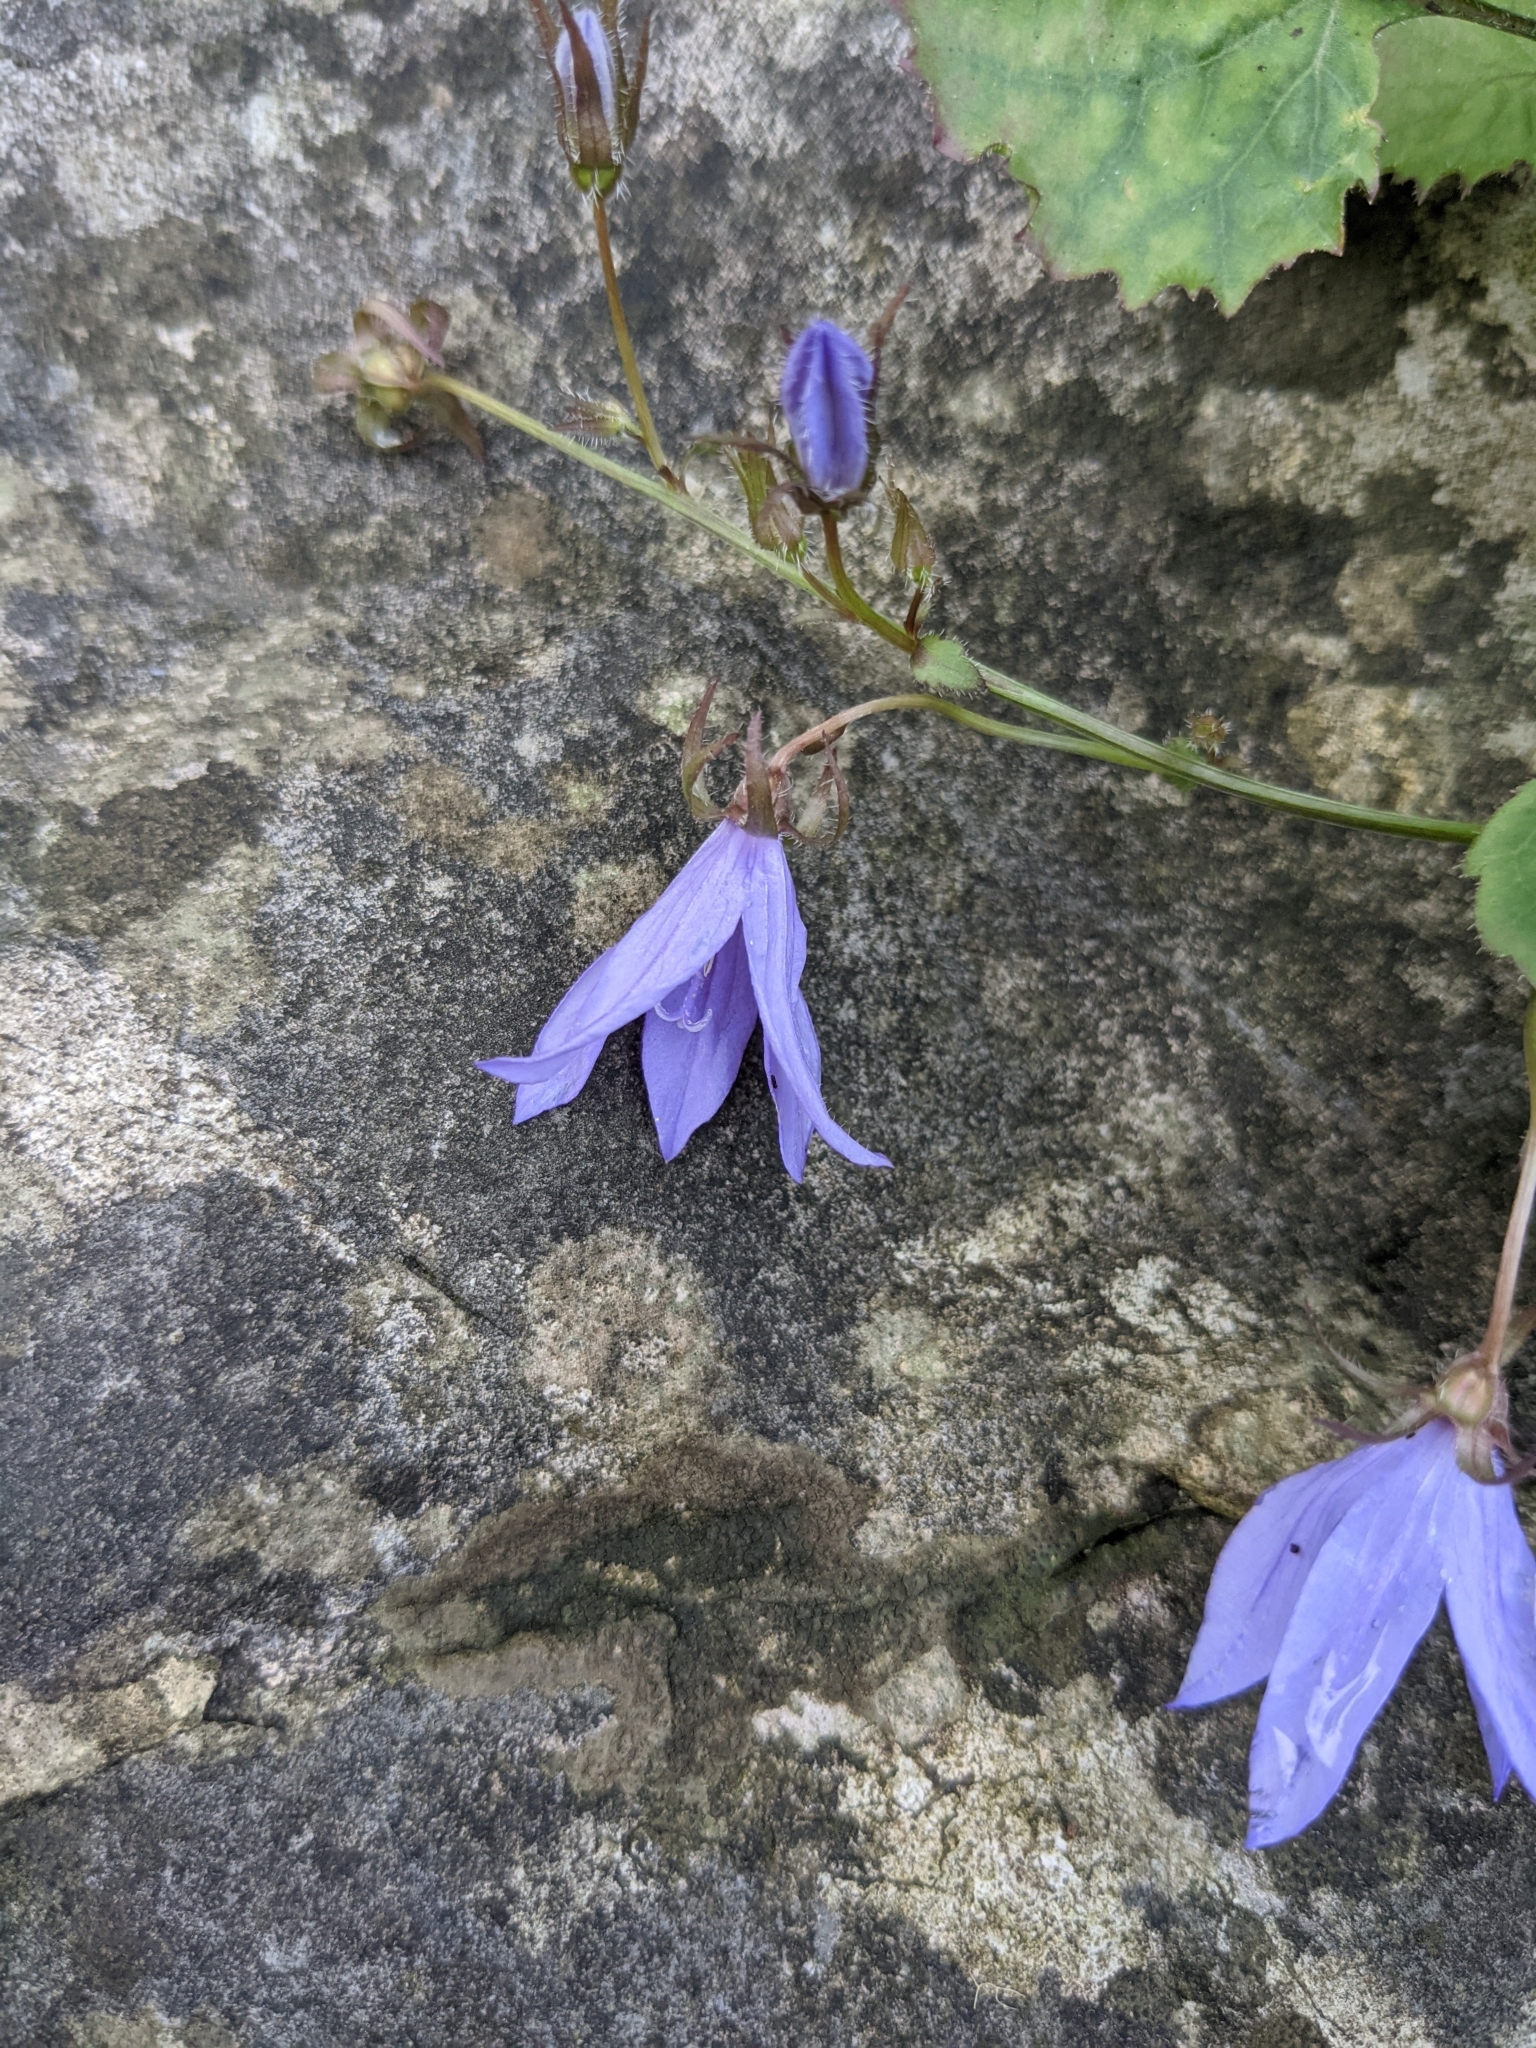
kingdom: Plantae
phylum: Tracheophyta
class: Magnoliopsida
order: Asterales
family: Campanulaceae
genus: Campanula
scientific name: Campanula poscharskyana
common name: Trailing bellflower
